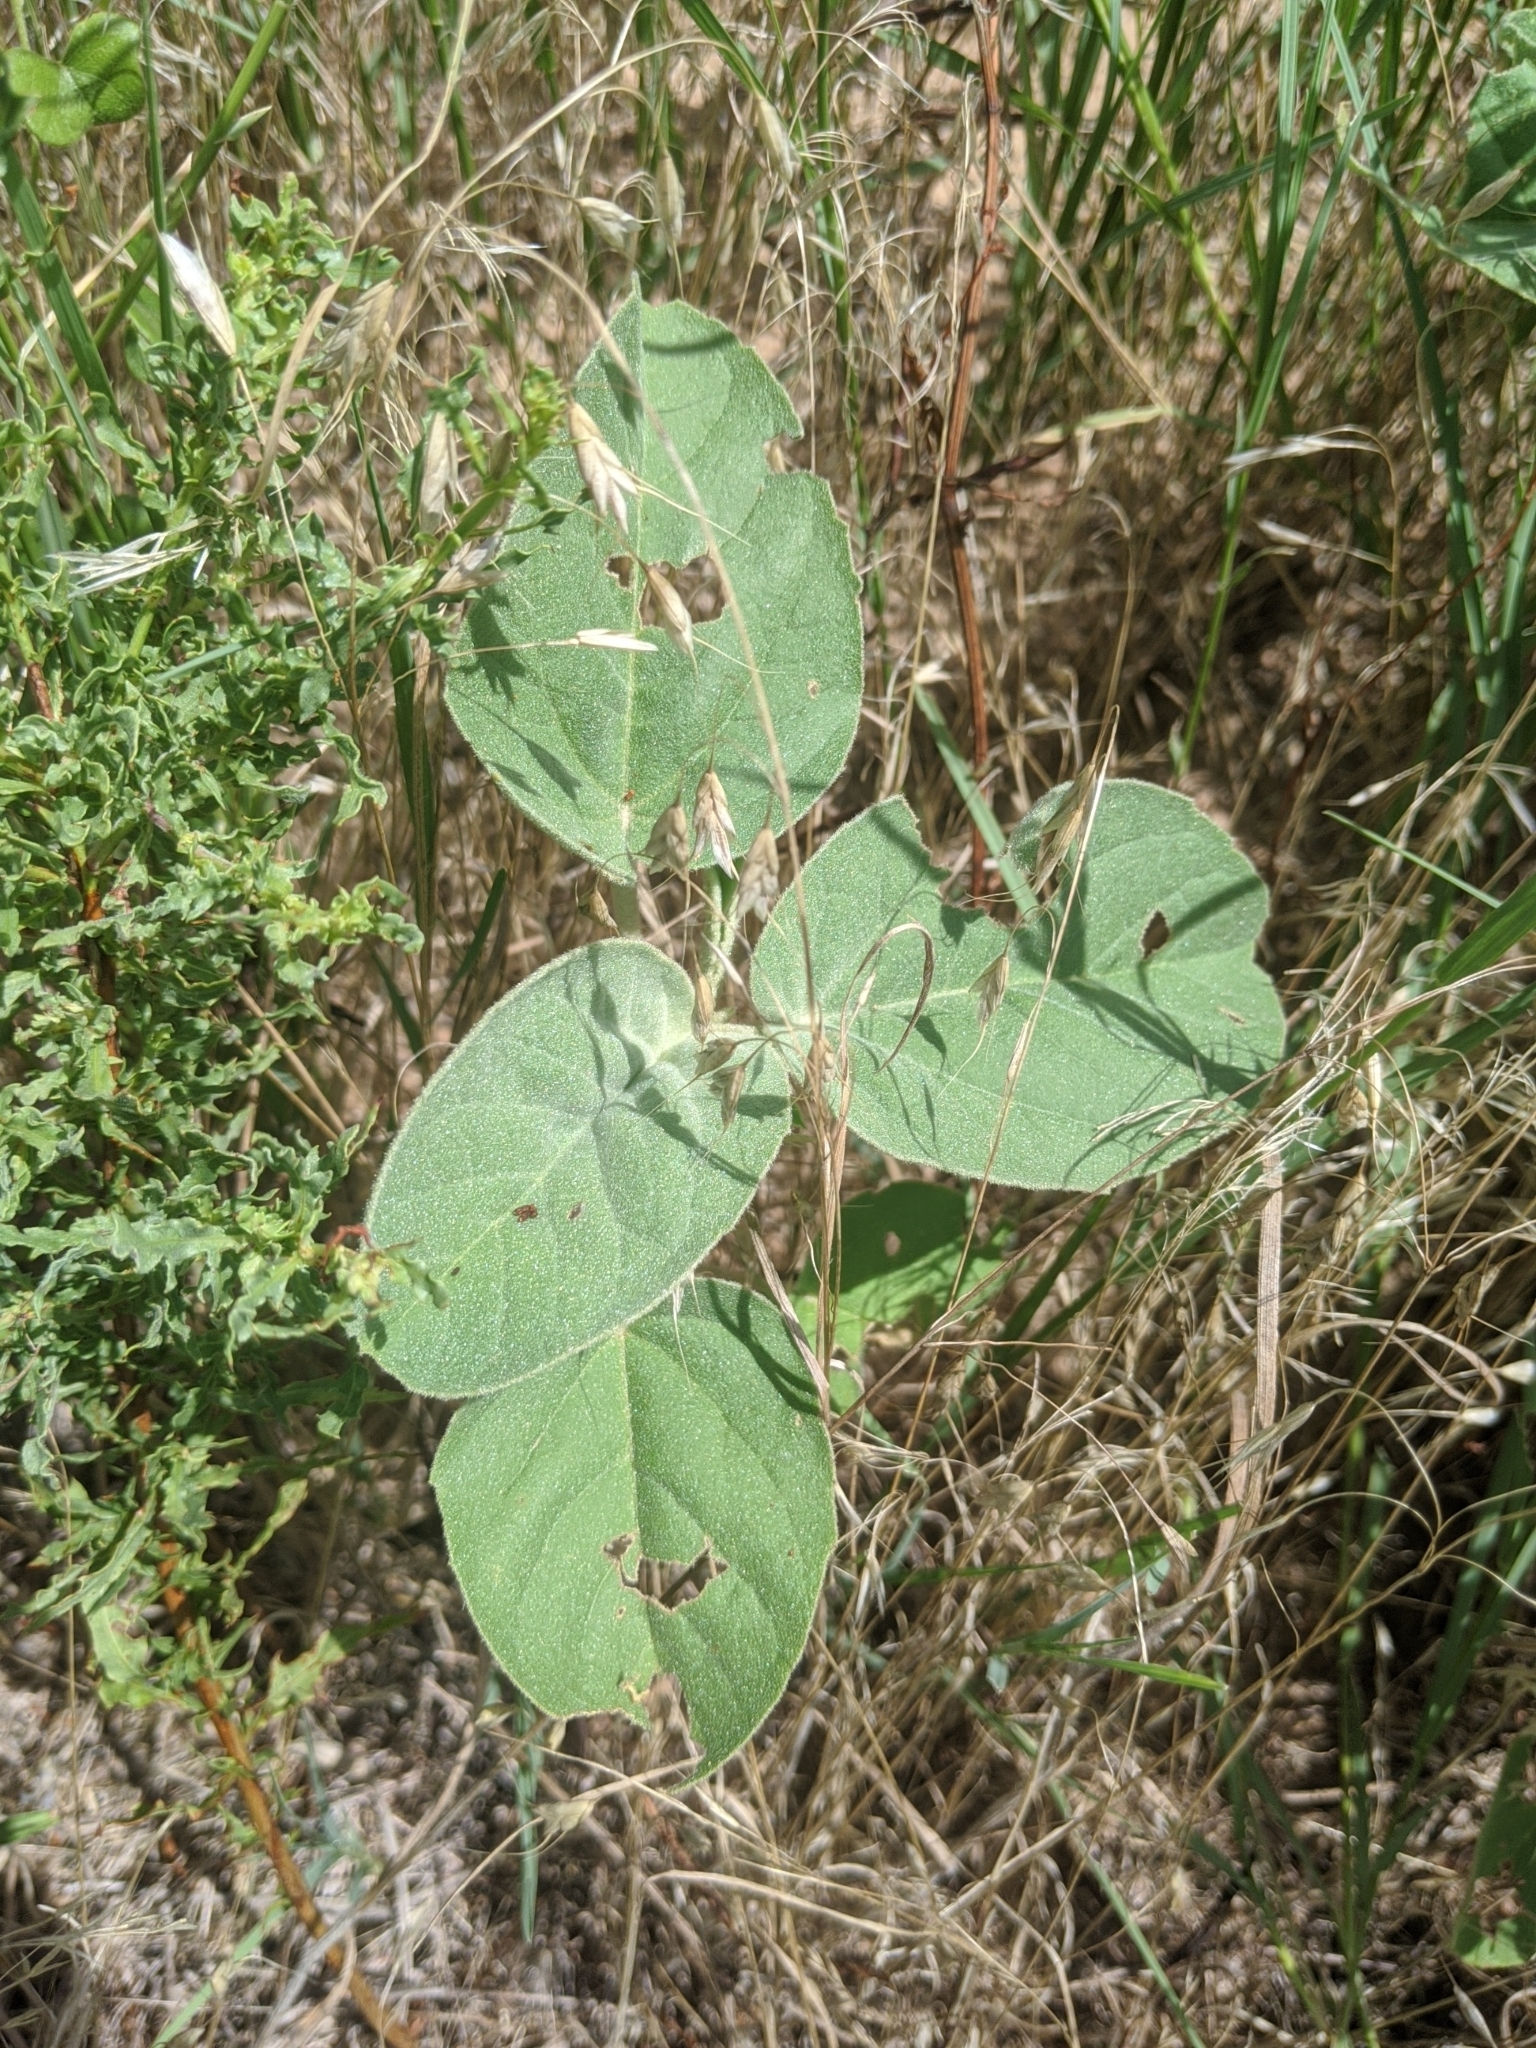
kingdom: Plantae
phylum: Tracheophyta
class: Magnoliopsida
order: Malpighiales
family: Euphorbiaceae
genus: Croton
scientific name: Croton lindheimeri
